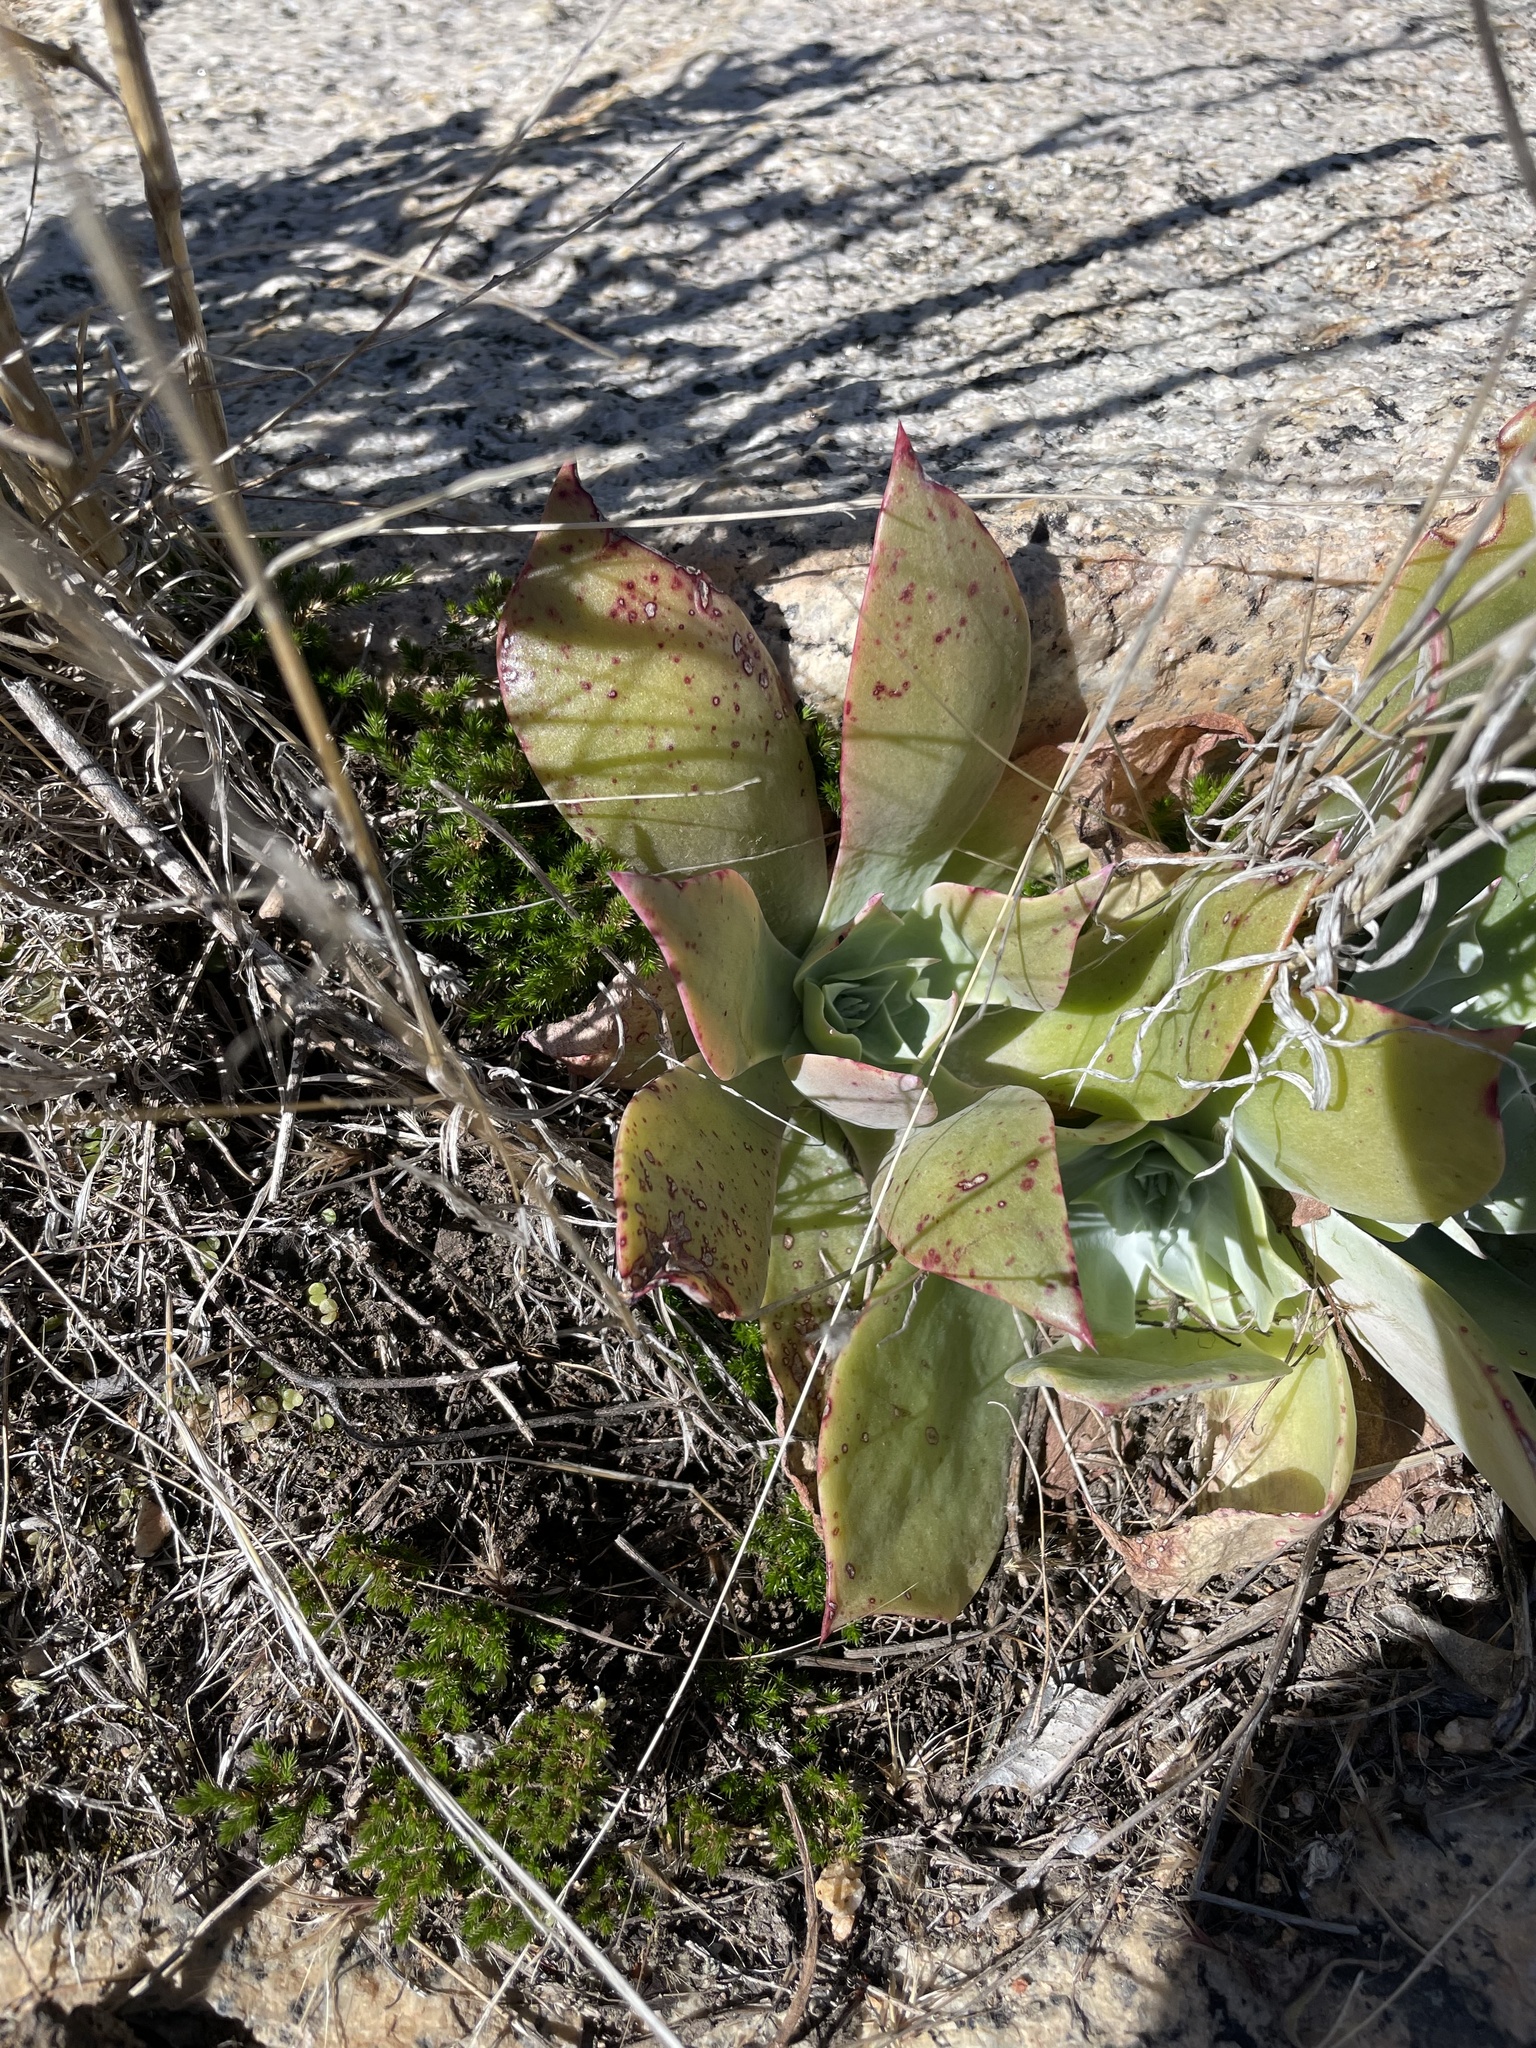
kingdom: Plantae
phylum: Tracheophyta
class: Magnoliopsida
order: Saxifragales
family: Crassulaceae
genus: Dudleya
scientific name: Dudleya pulverulenta
